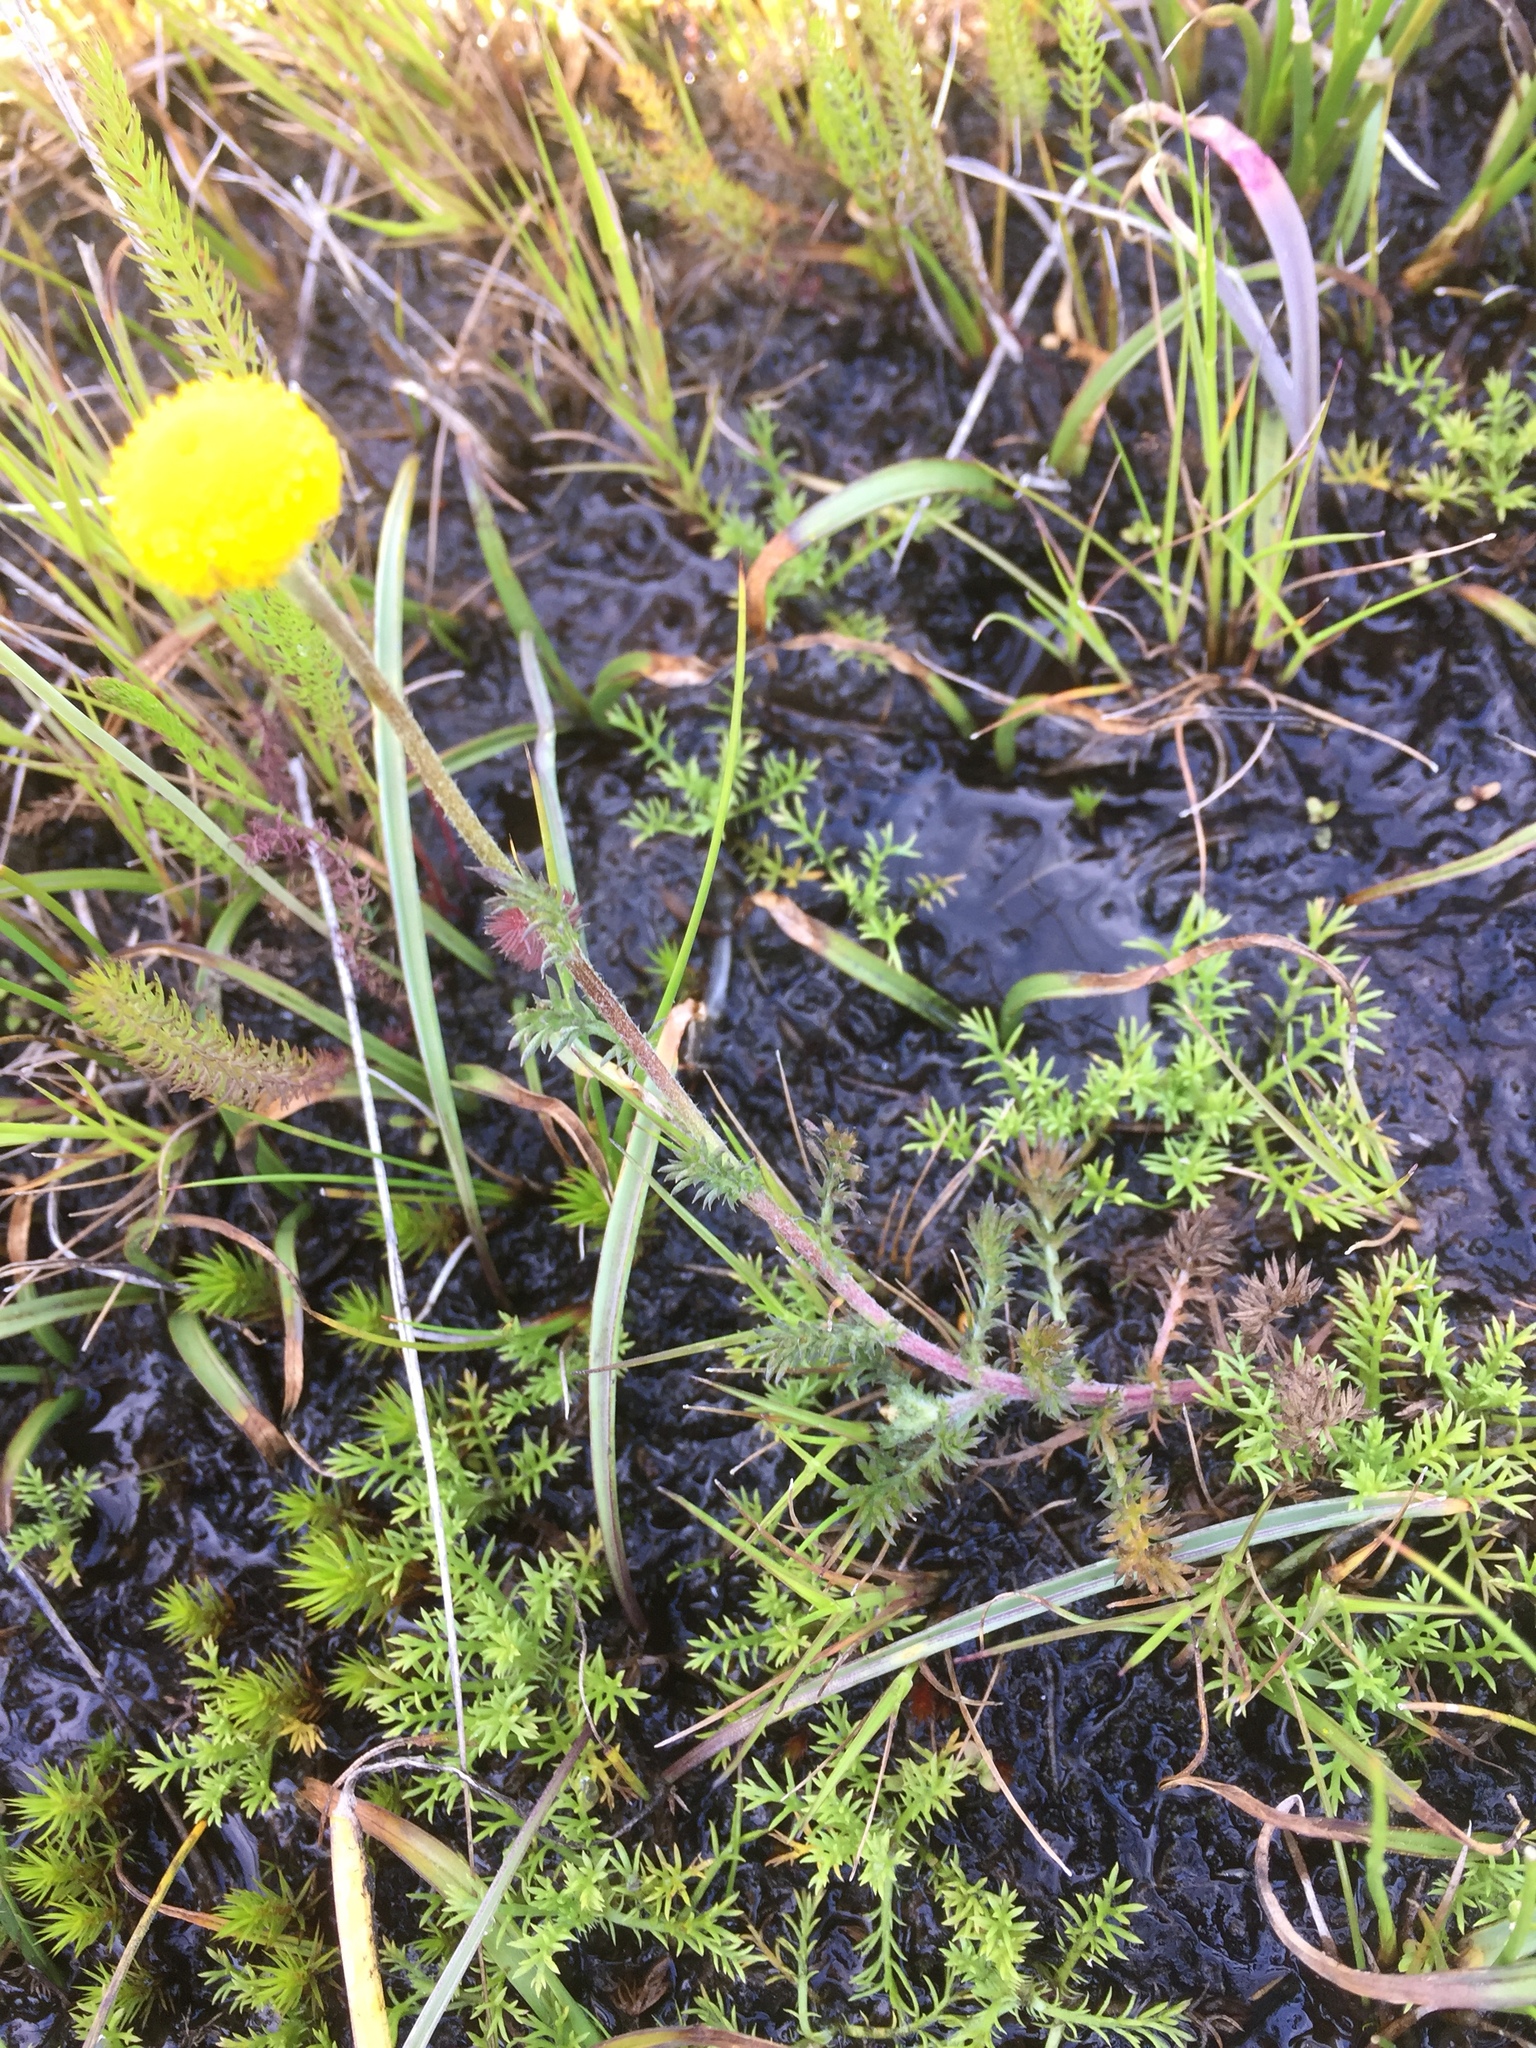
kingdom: Plantae
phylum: Tracheophyta
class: Magnoliopsida
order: Asterales
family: Asteraceae
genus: Chamaemelum
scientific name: Chamaemelum nobile
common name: Roman chamomile
